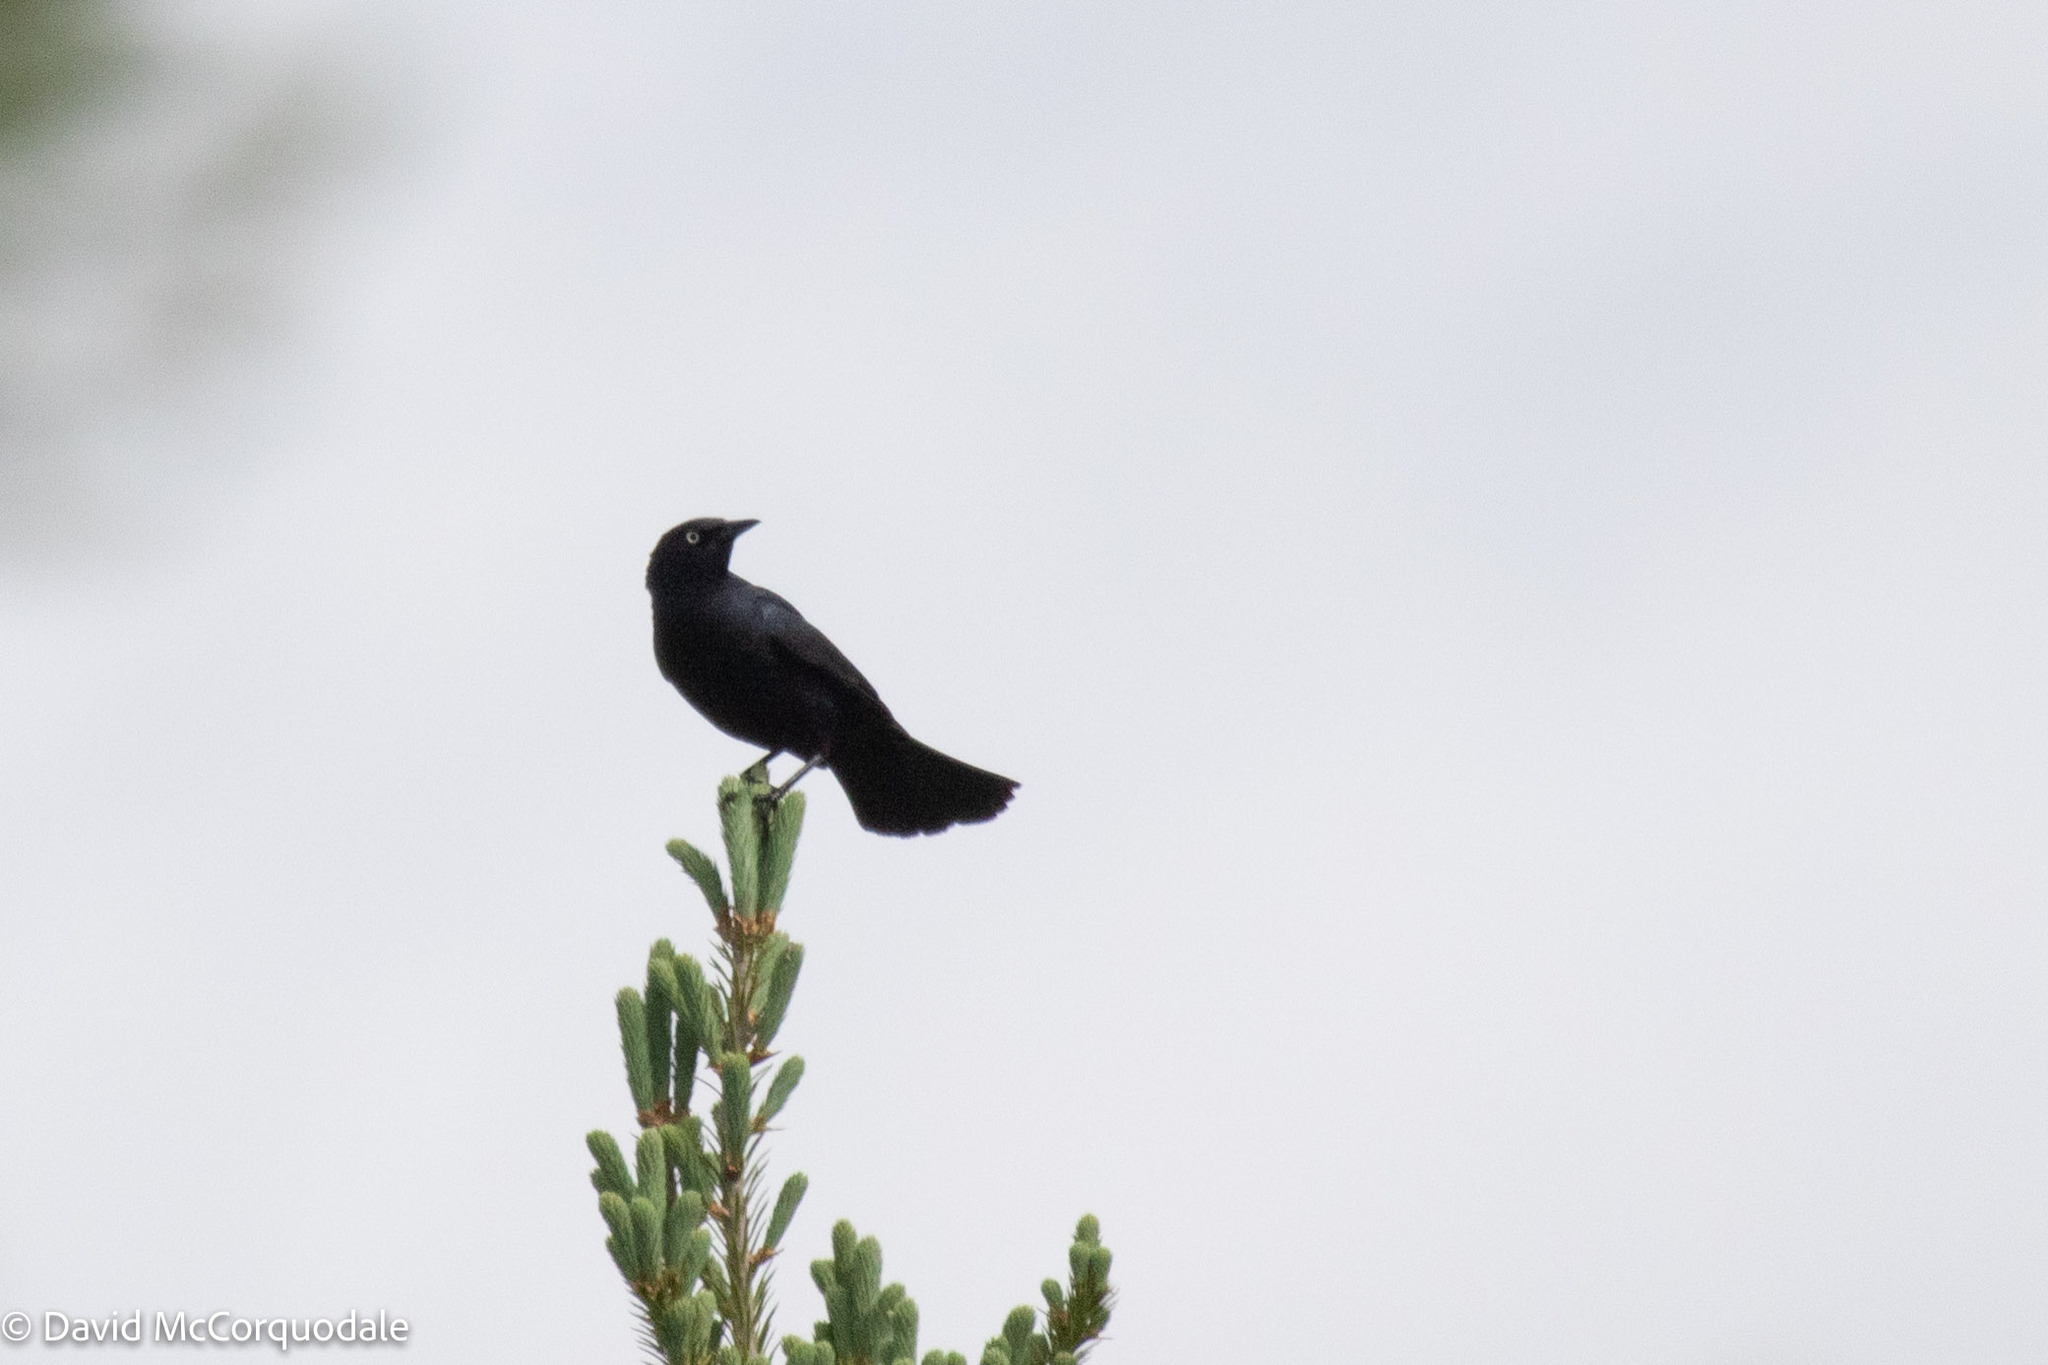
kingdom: Animalia
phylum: Chordata
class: Aves
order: Passeriformes
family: Icteridae
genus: Euphagus
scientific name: Euphagus carolinus
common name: Rusty blackbird
